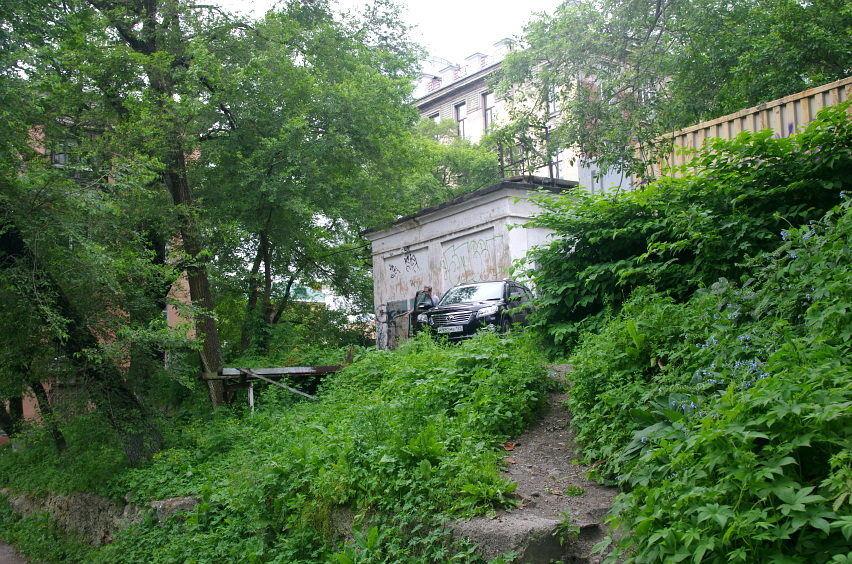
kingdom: Plantae
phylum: Tracheophyta
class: Magnoliopsida
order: Boraginales
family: Boraginaceae
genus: Symphytum
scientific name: Symphytum caucasicum
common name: Caucasian comfrey
